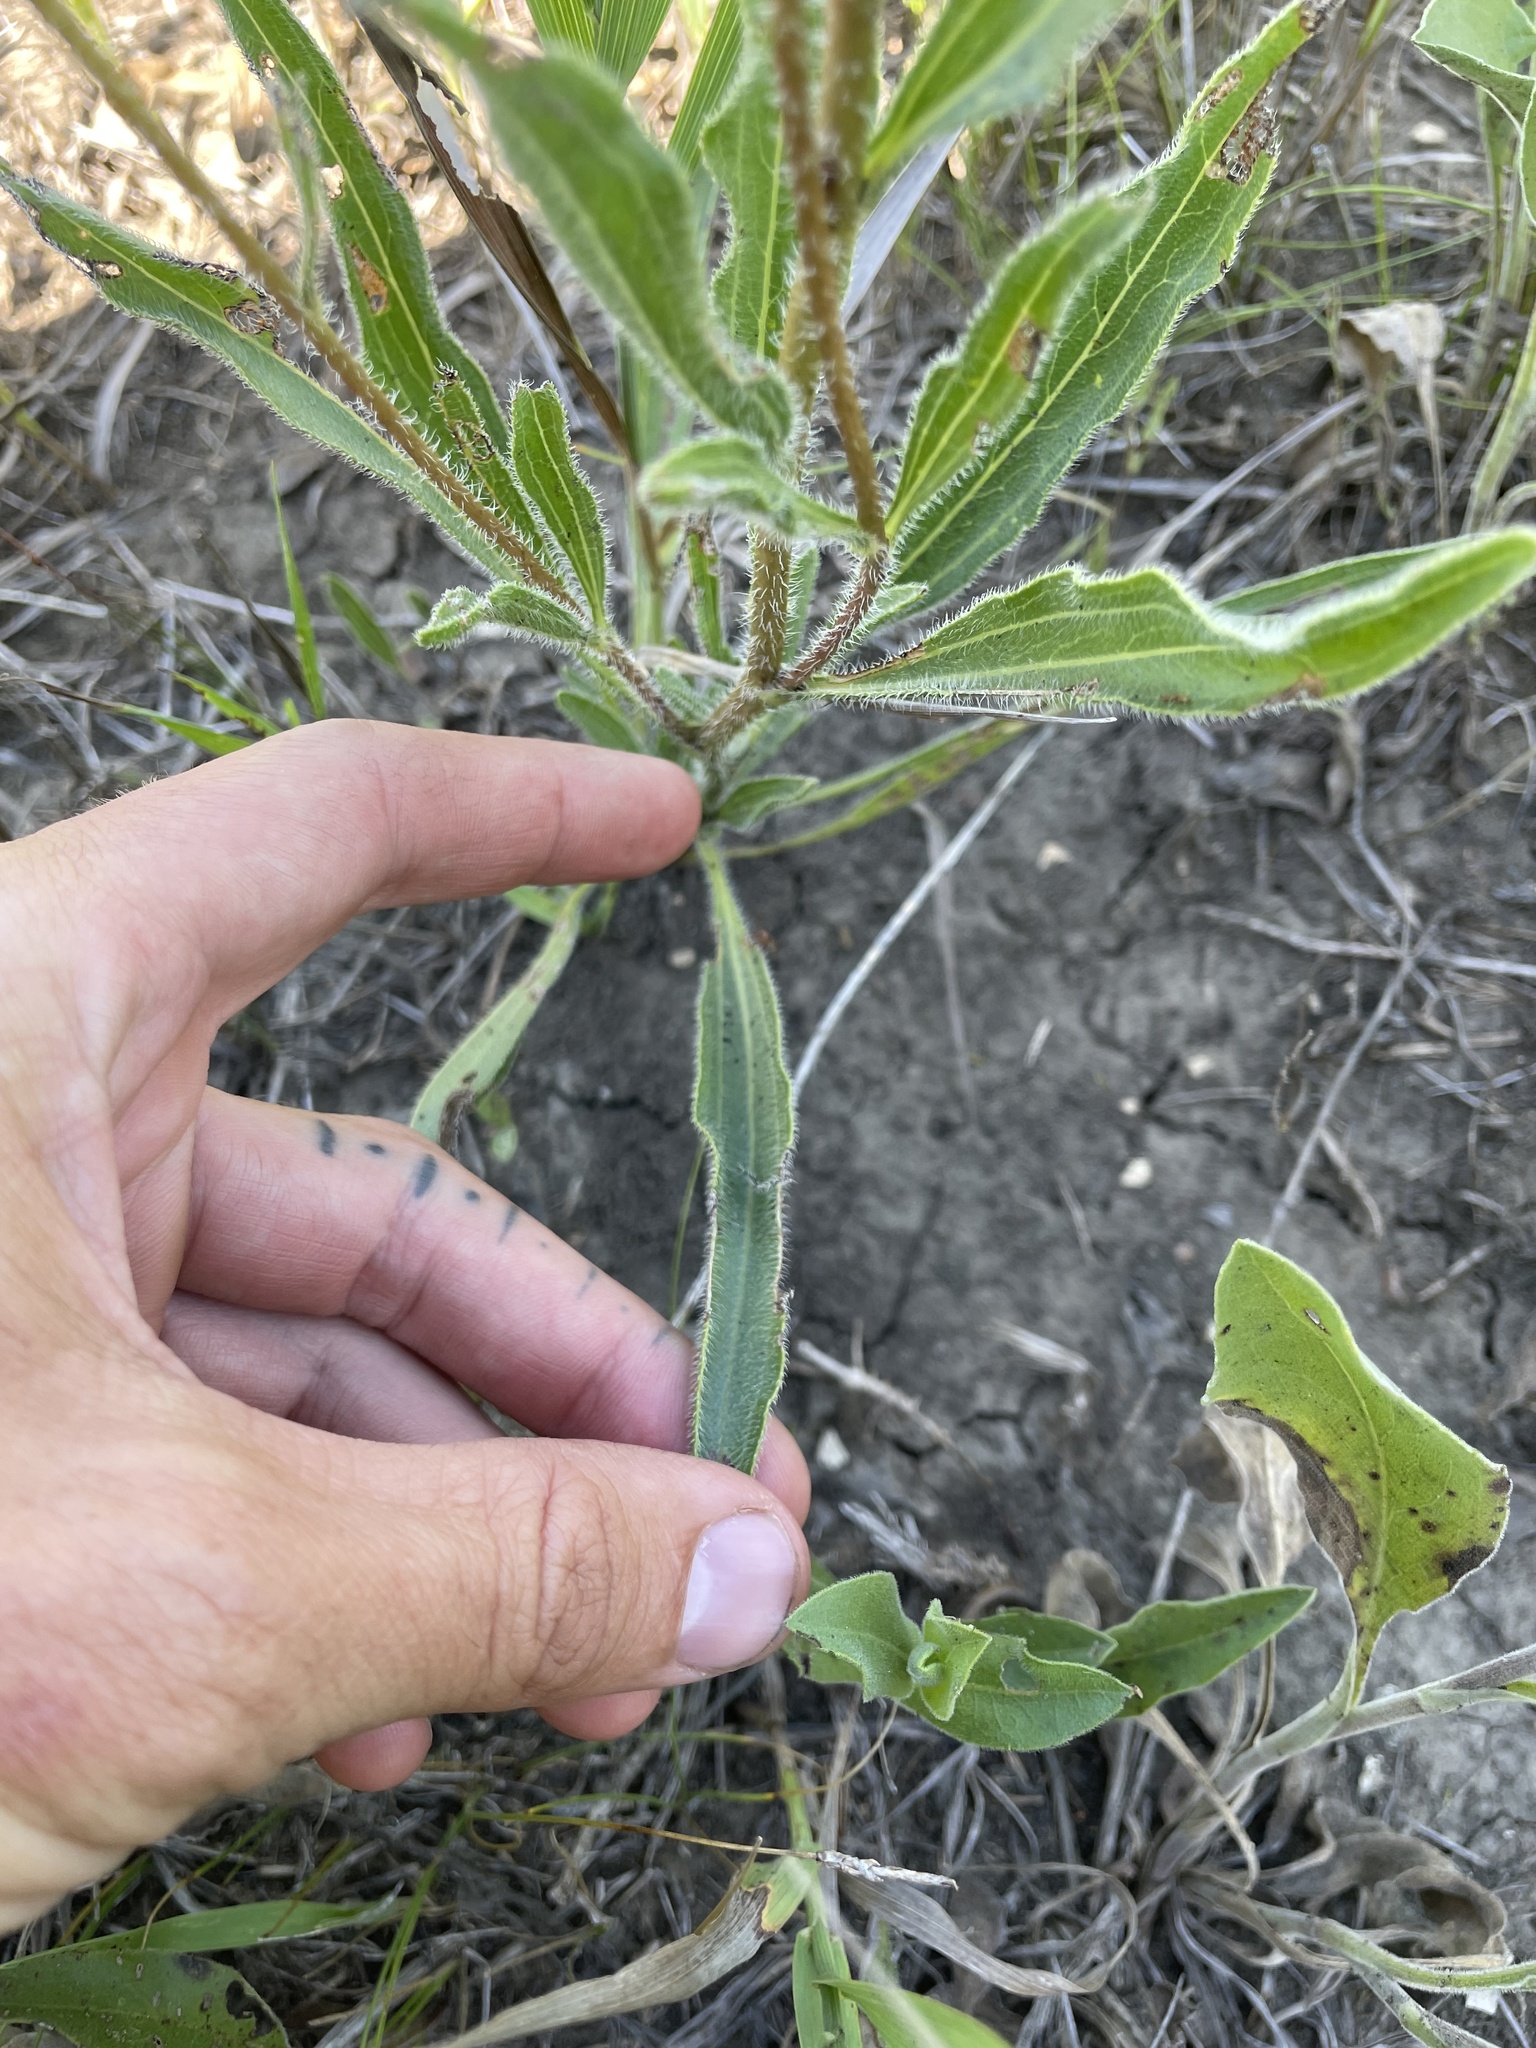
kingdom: Plantae
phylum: Tracheophyta
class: Magnoliopsida
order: Asterales
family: Asteraceae
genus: Echinacea
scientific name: Echinacea angustifolia
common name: Black-sampson echinacea
